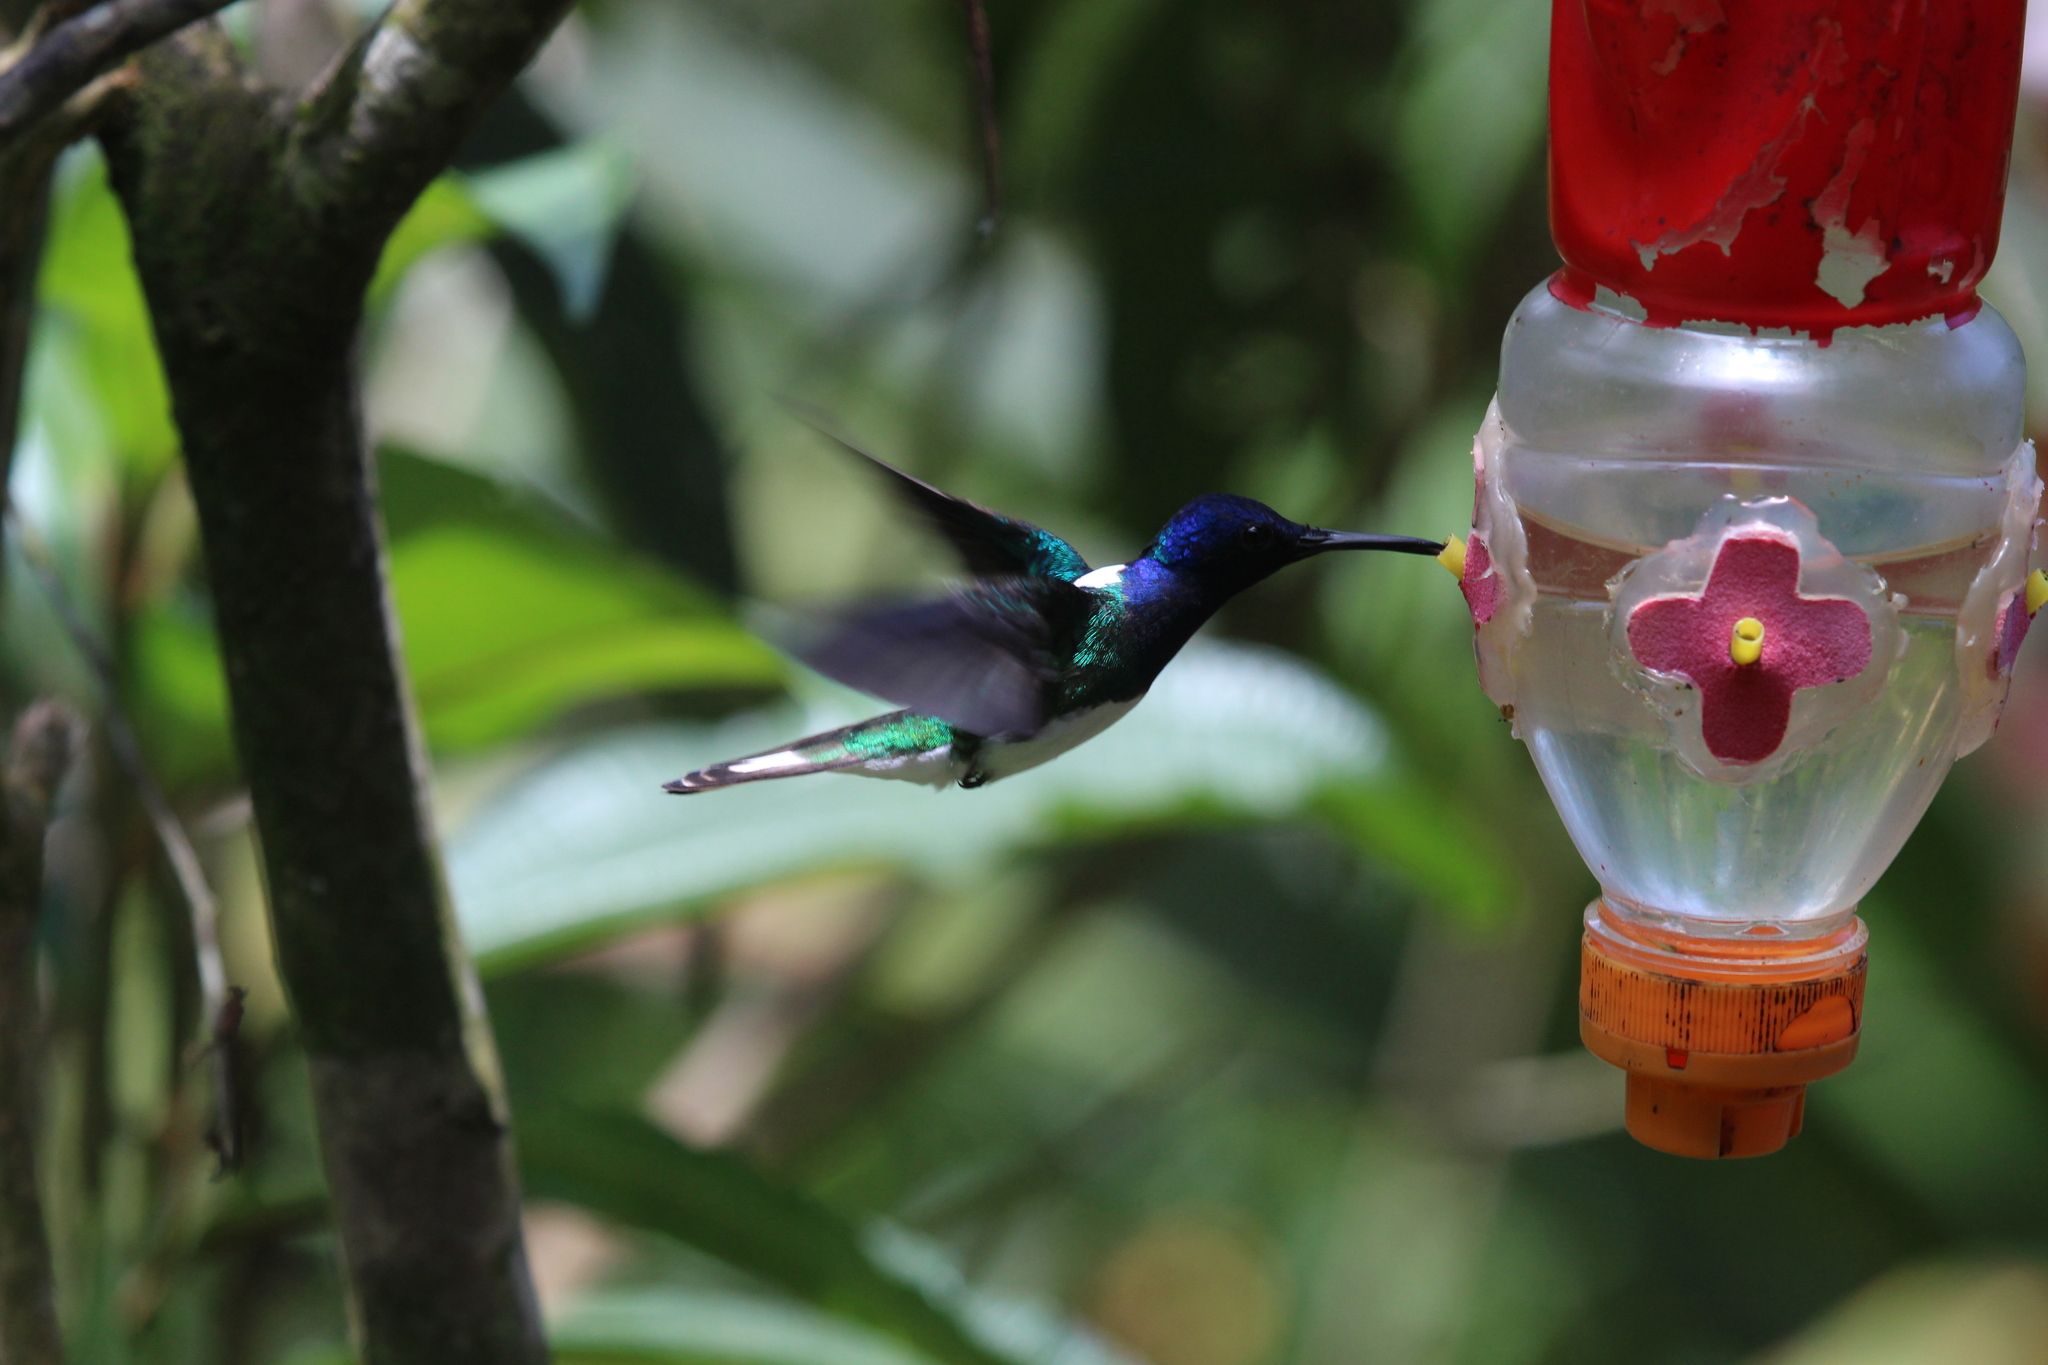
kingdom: Animalia
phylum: Chordata
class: Aves
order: Apodiformes
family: Trochilidae
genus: Florisuga
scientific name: Florisuga mellivora
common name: White-necked jacobin
